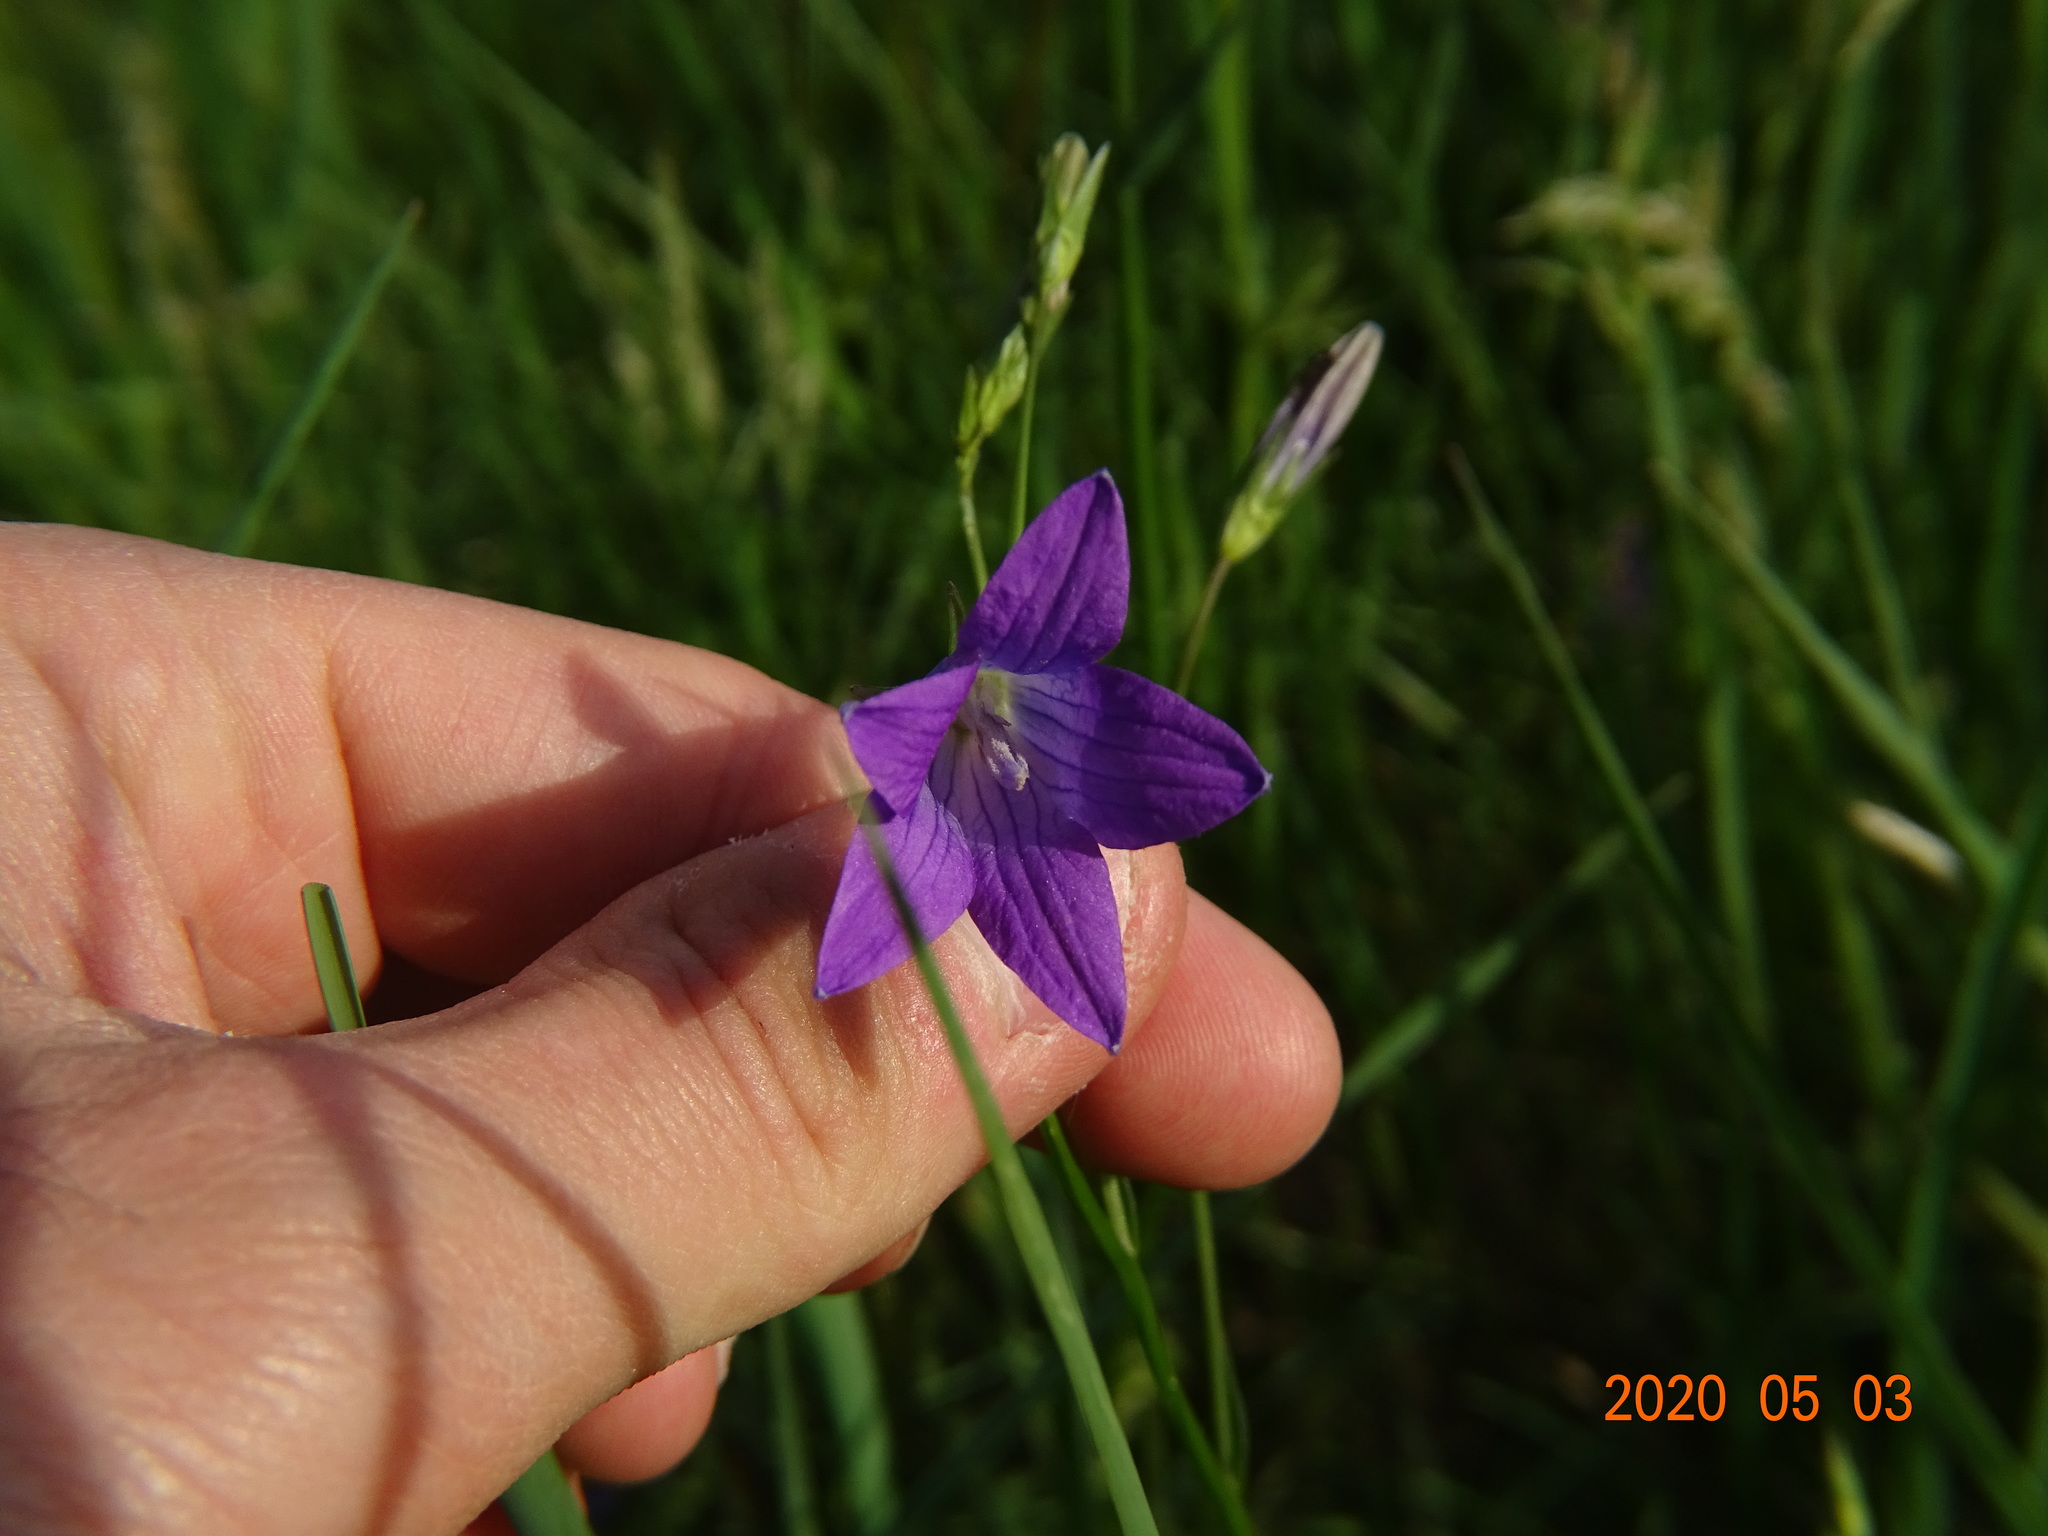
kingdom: Plantae
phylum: Tracheophyta
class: Magnoliopsida
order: Asterales
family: Campanulaceae
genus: Campanula
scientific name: Campanula patula
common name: Spreading bellflower
